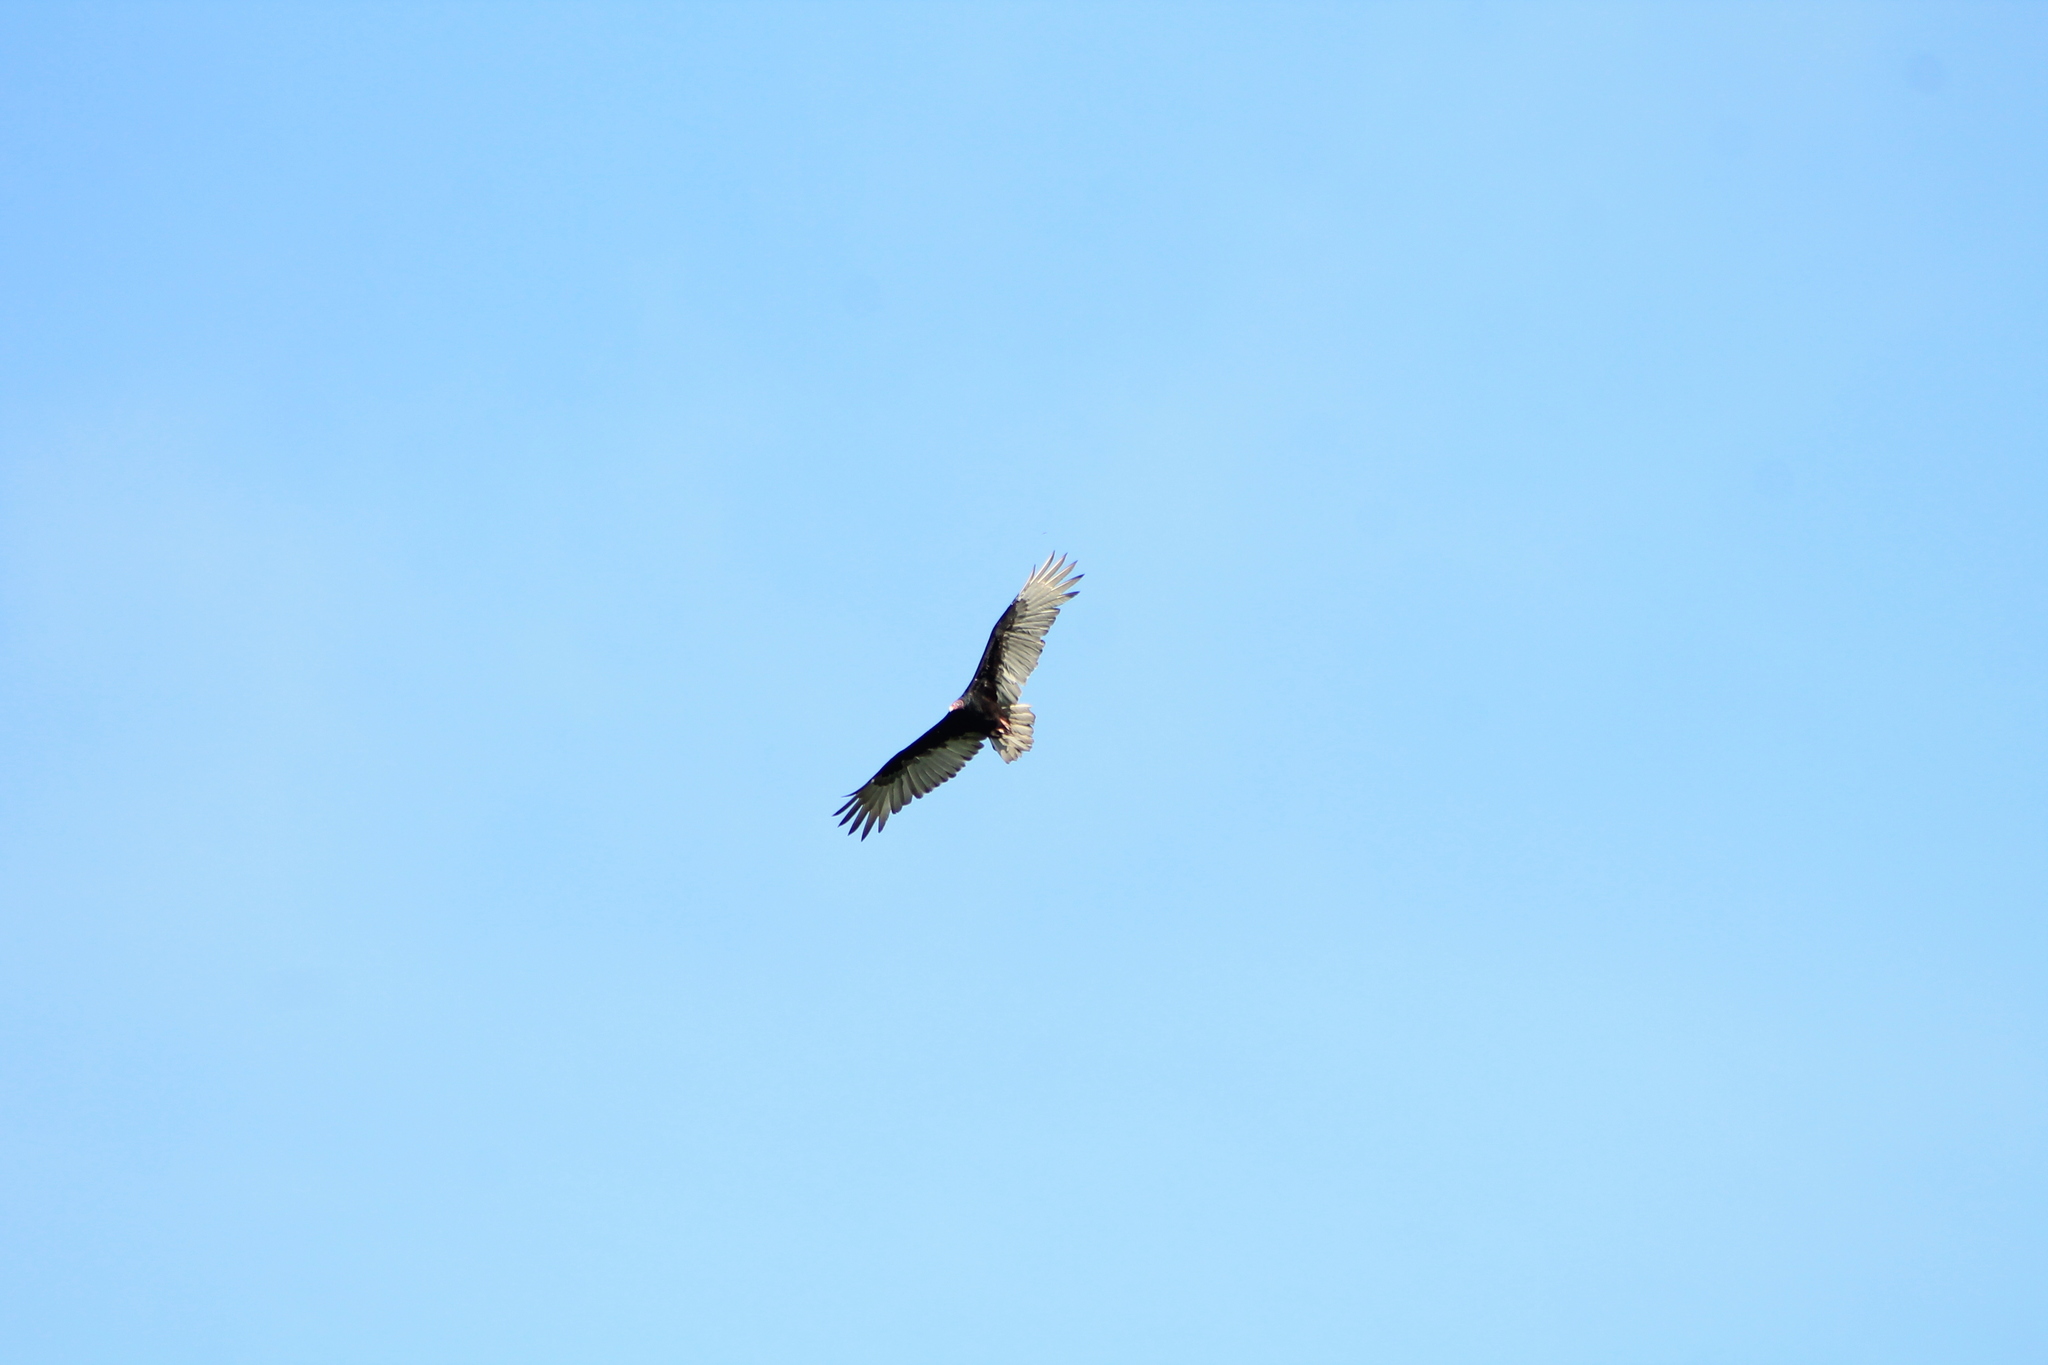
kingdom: Animalia
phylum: Chordata
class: Aves
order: Accipitriformes
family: Cathartidae
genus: Cathartes
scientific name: Cathartes aura
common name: Turkey vulture
